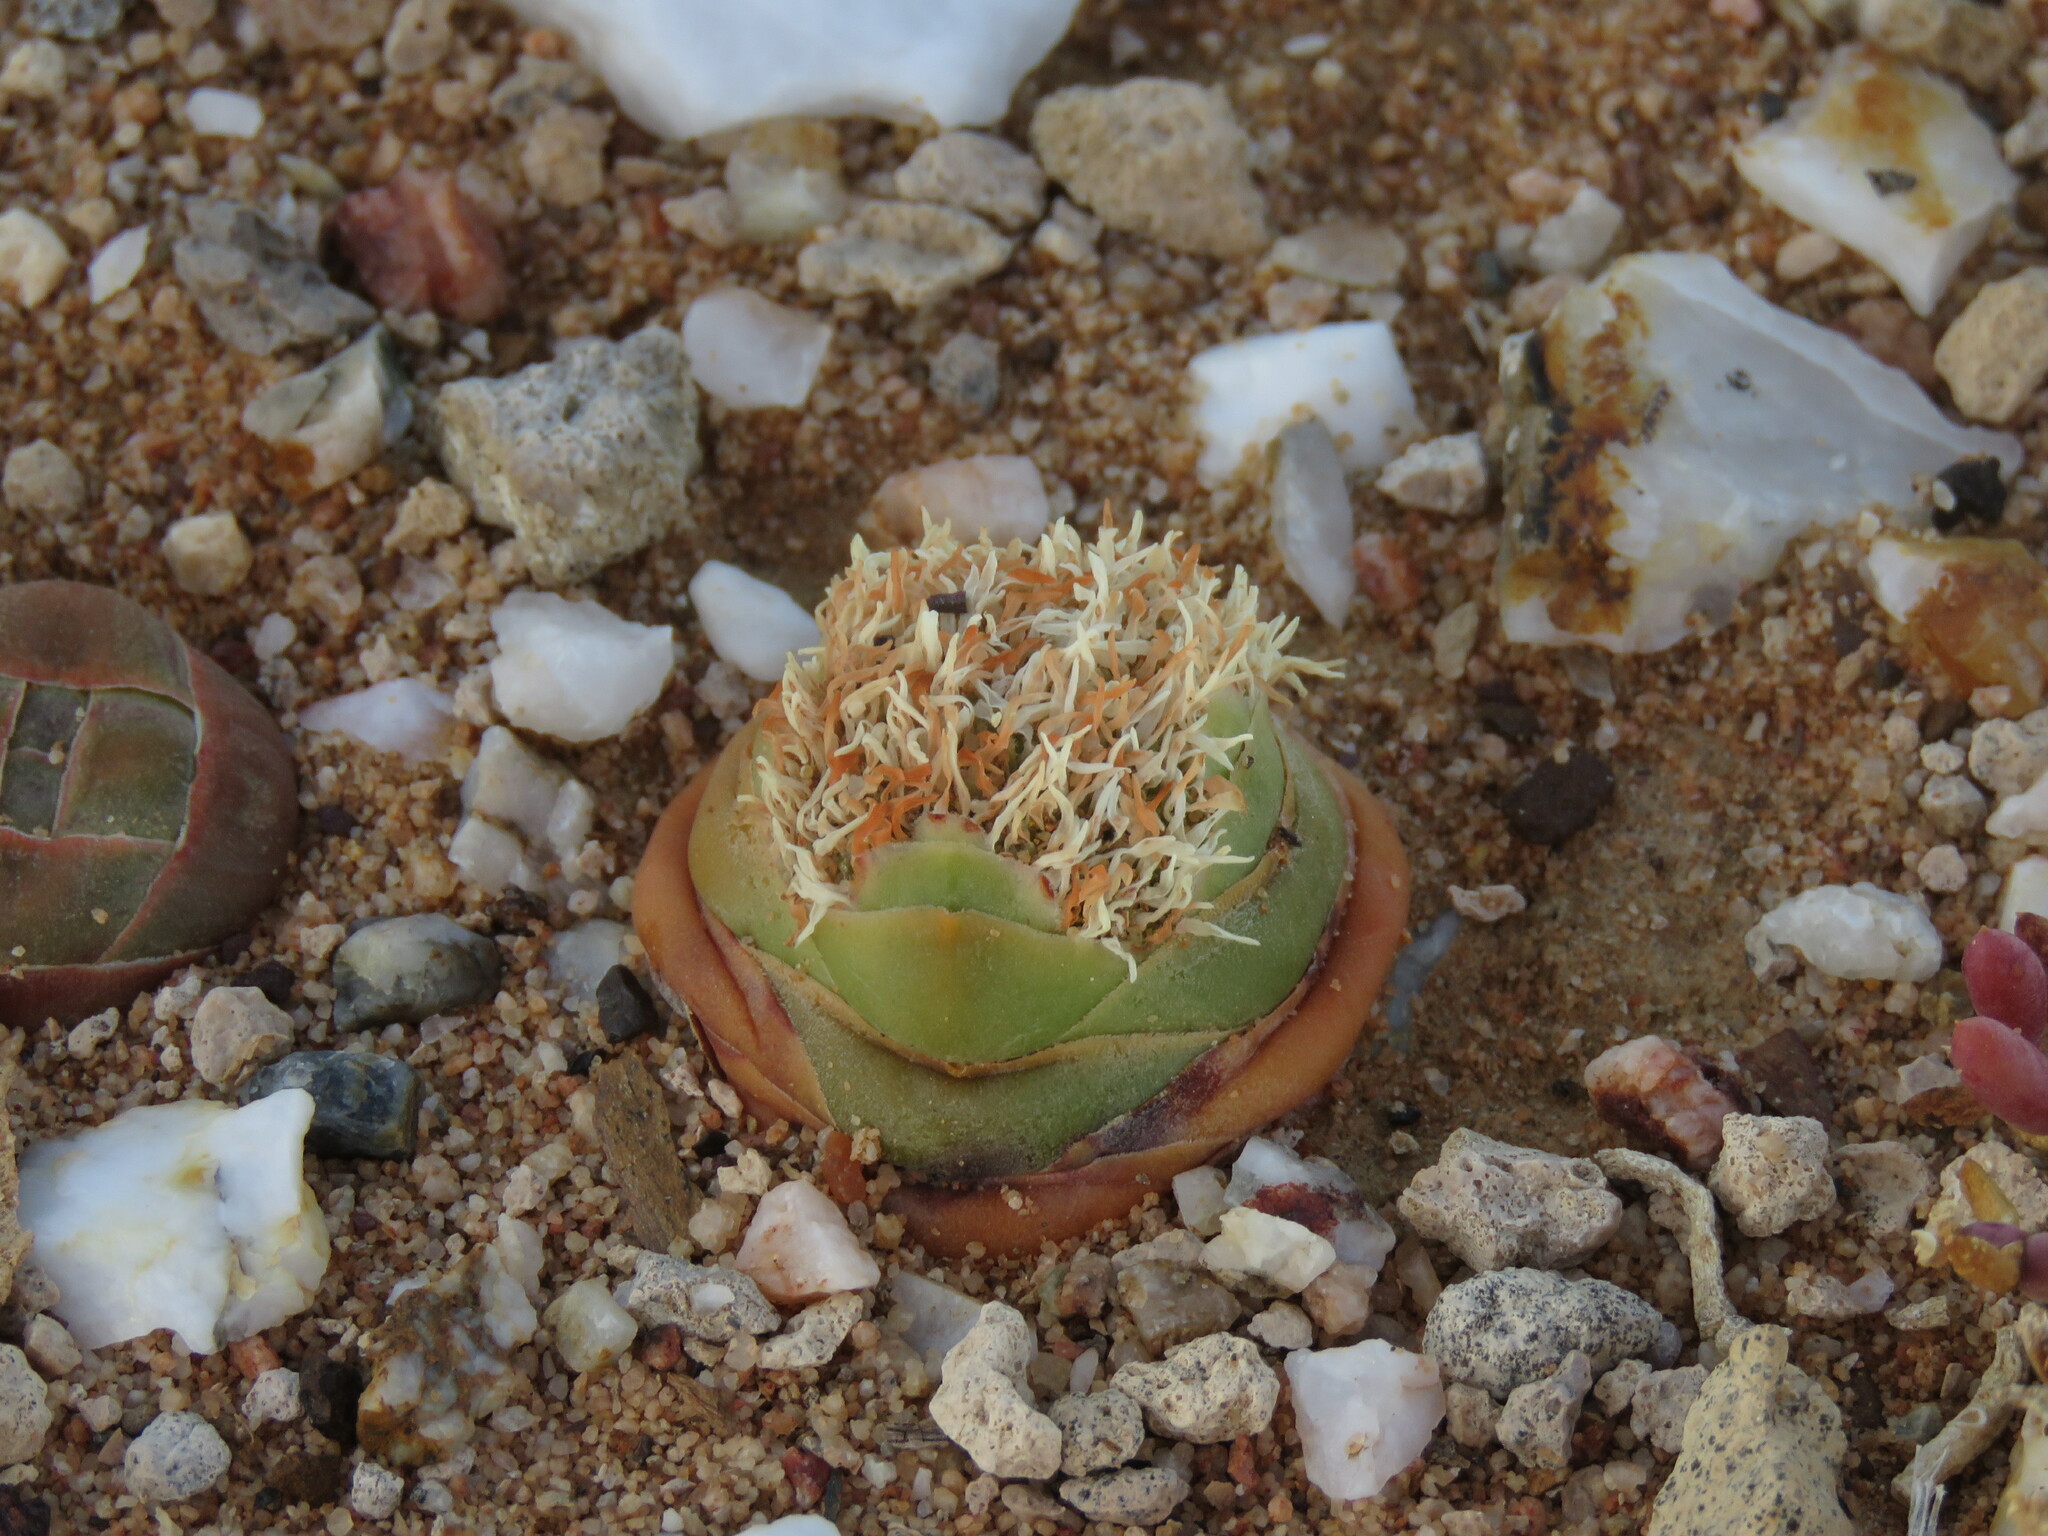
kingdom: Plantae
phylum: Tracheophyta
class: Magnoliopsida
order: Saxifragales
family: Crassulaceae
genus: Crassula
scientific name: Crassula columnaris
